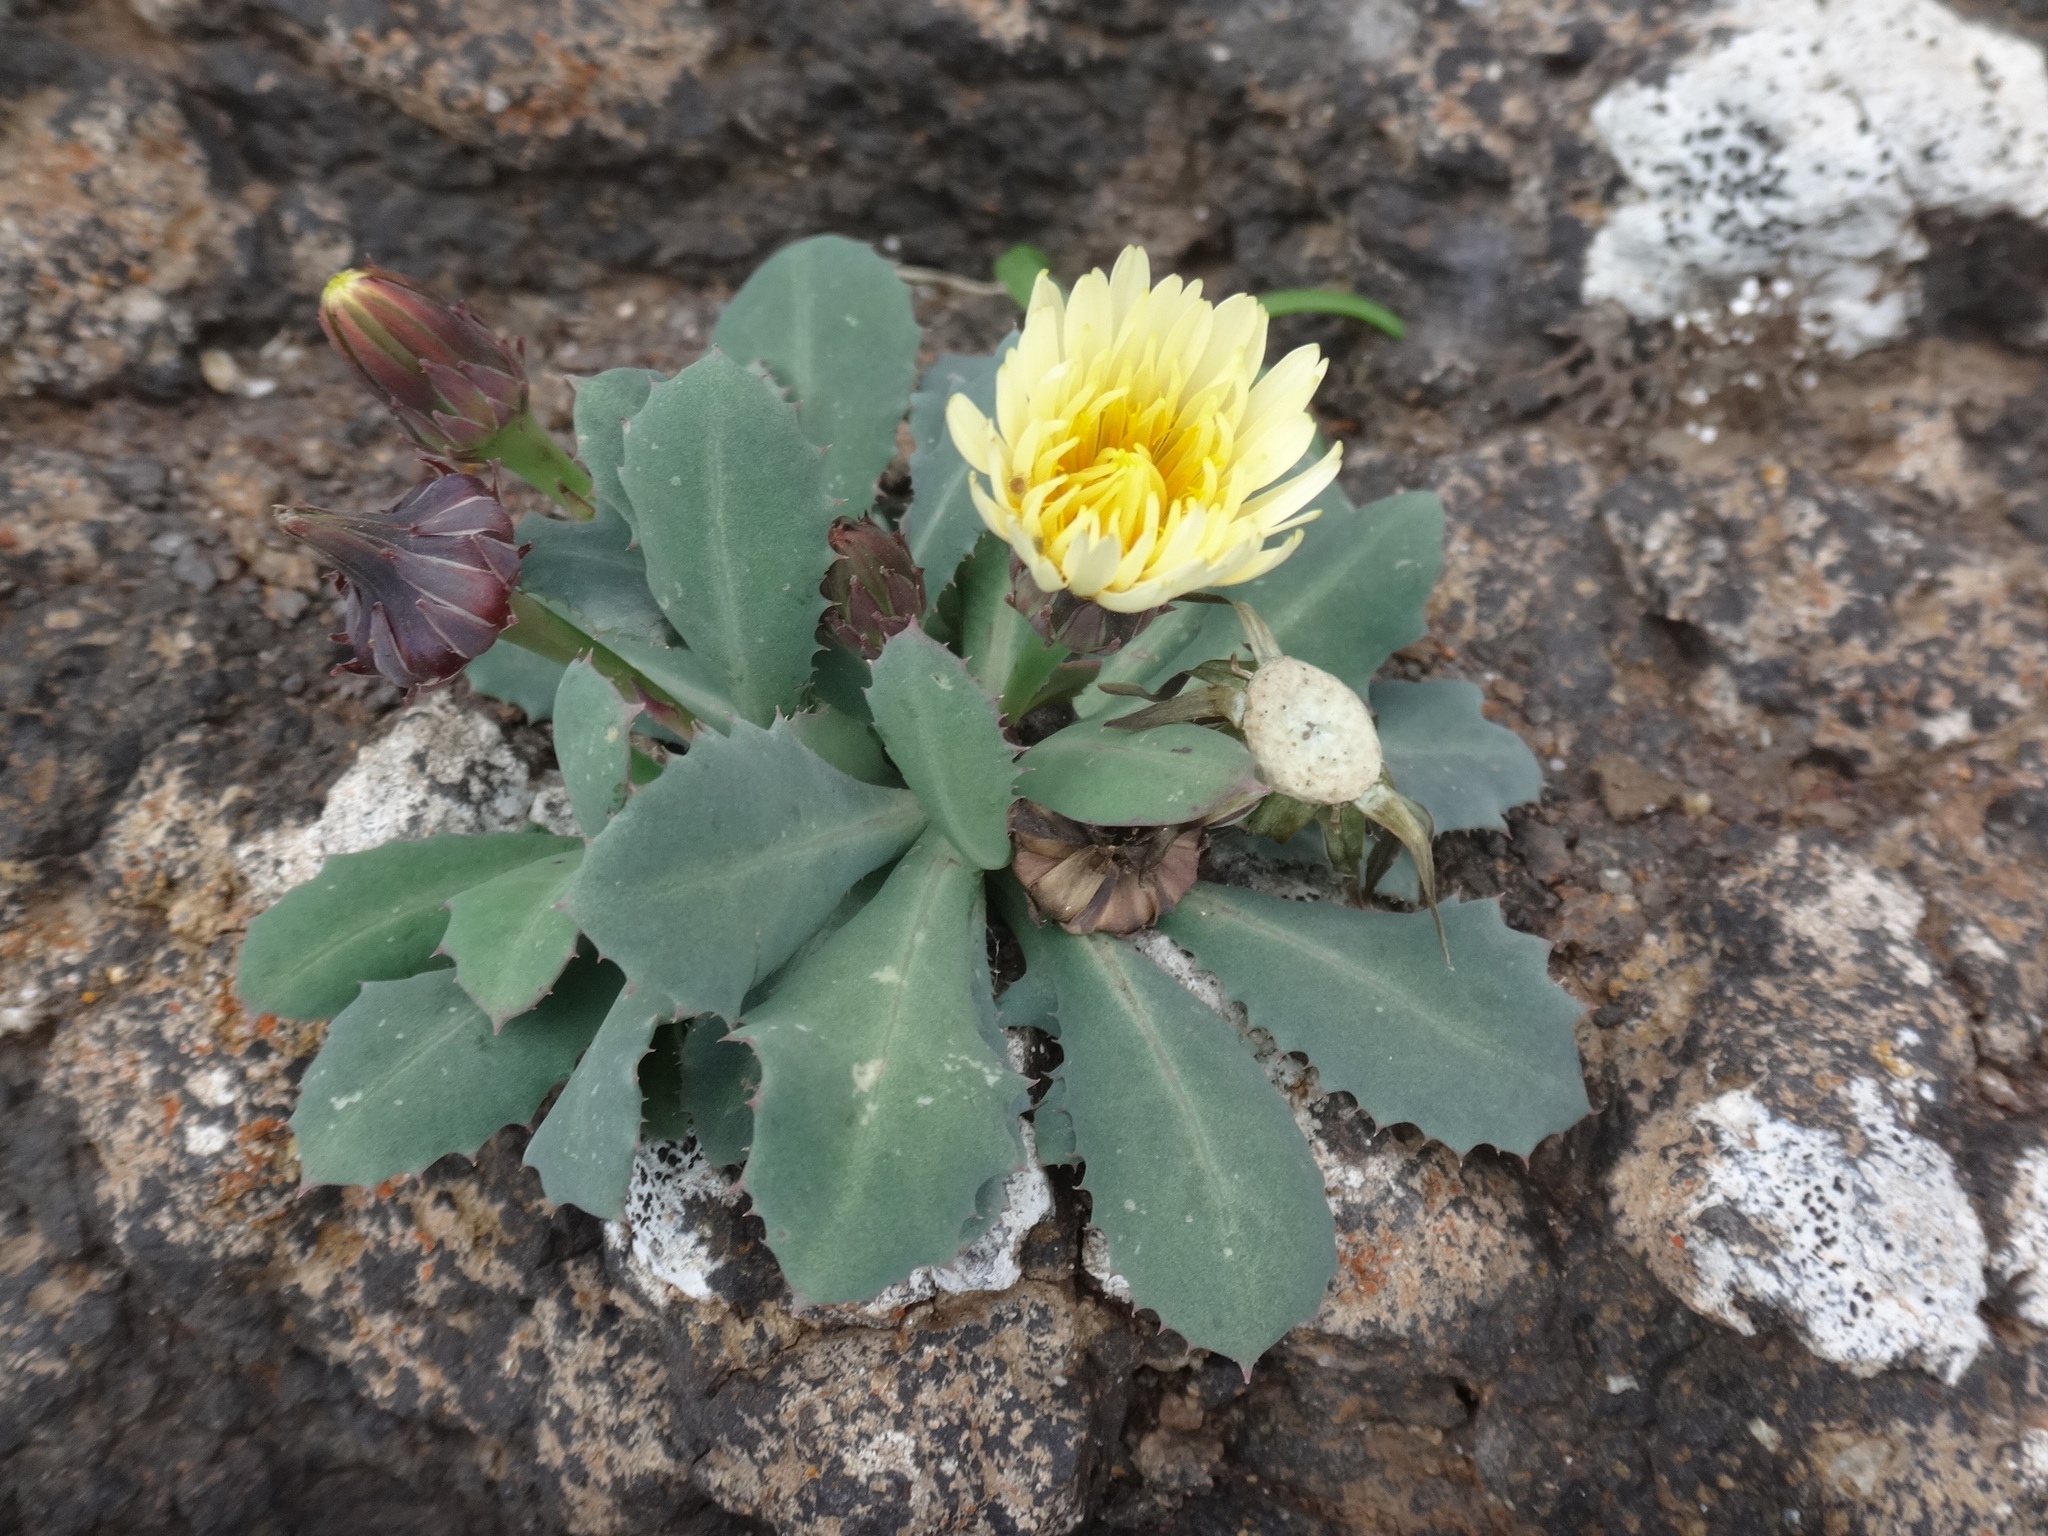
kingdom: Plantae
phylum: Tracheophyta
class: Magnoliopsida
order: Asterales
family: Asteraceae
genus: Reichardia
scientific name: Reichardia famarae
